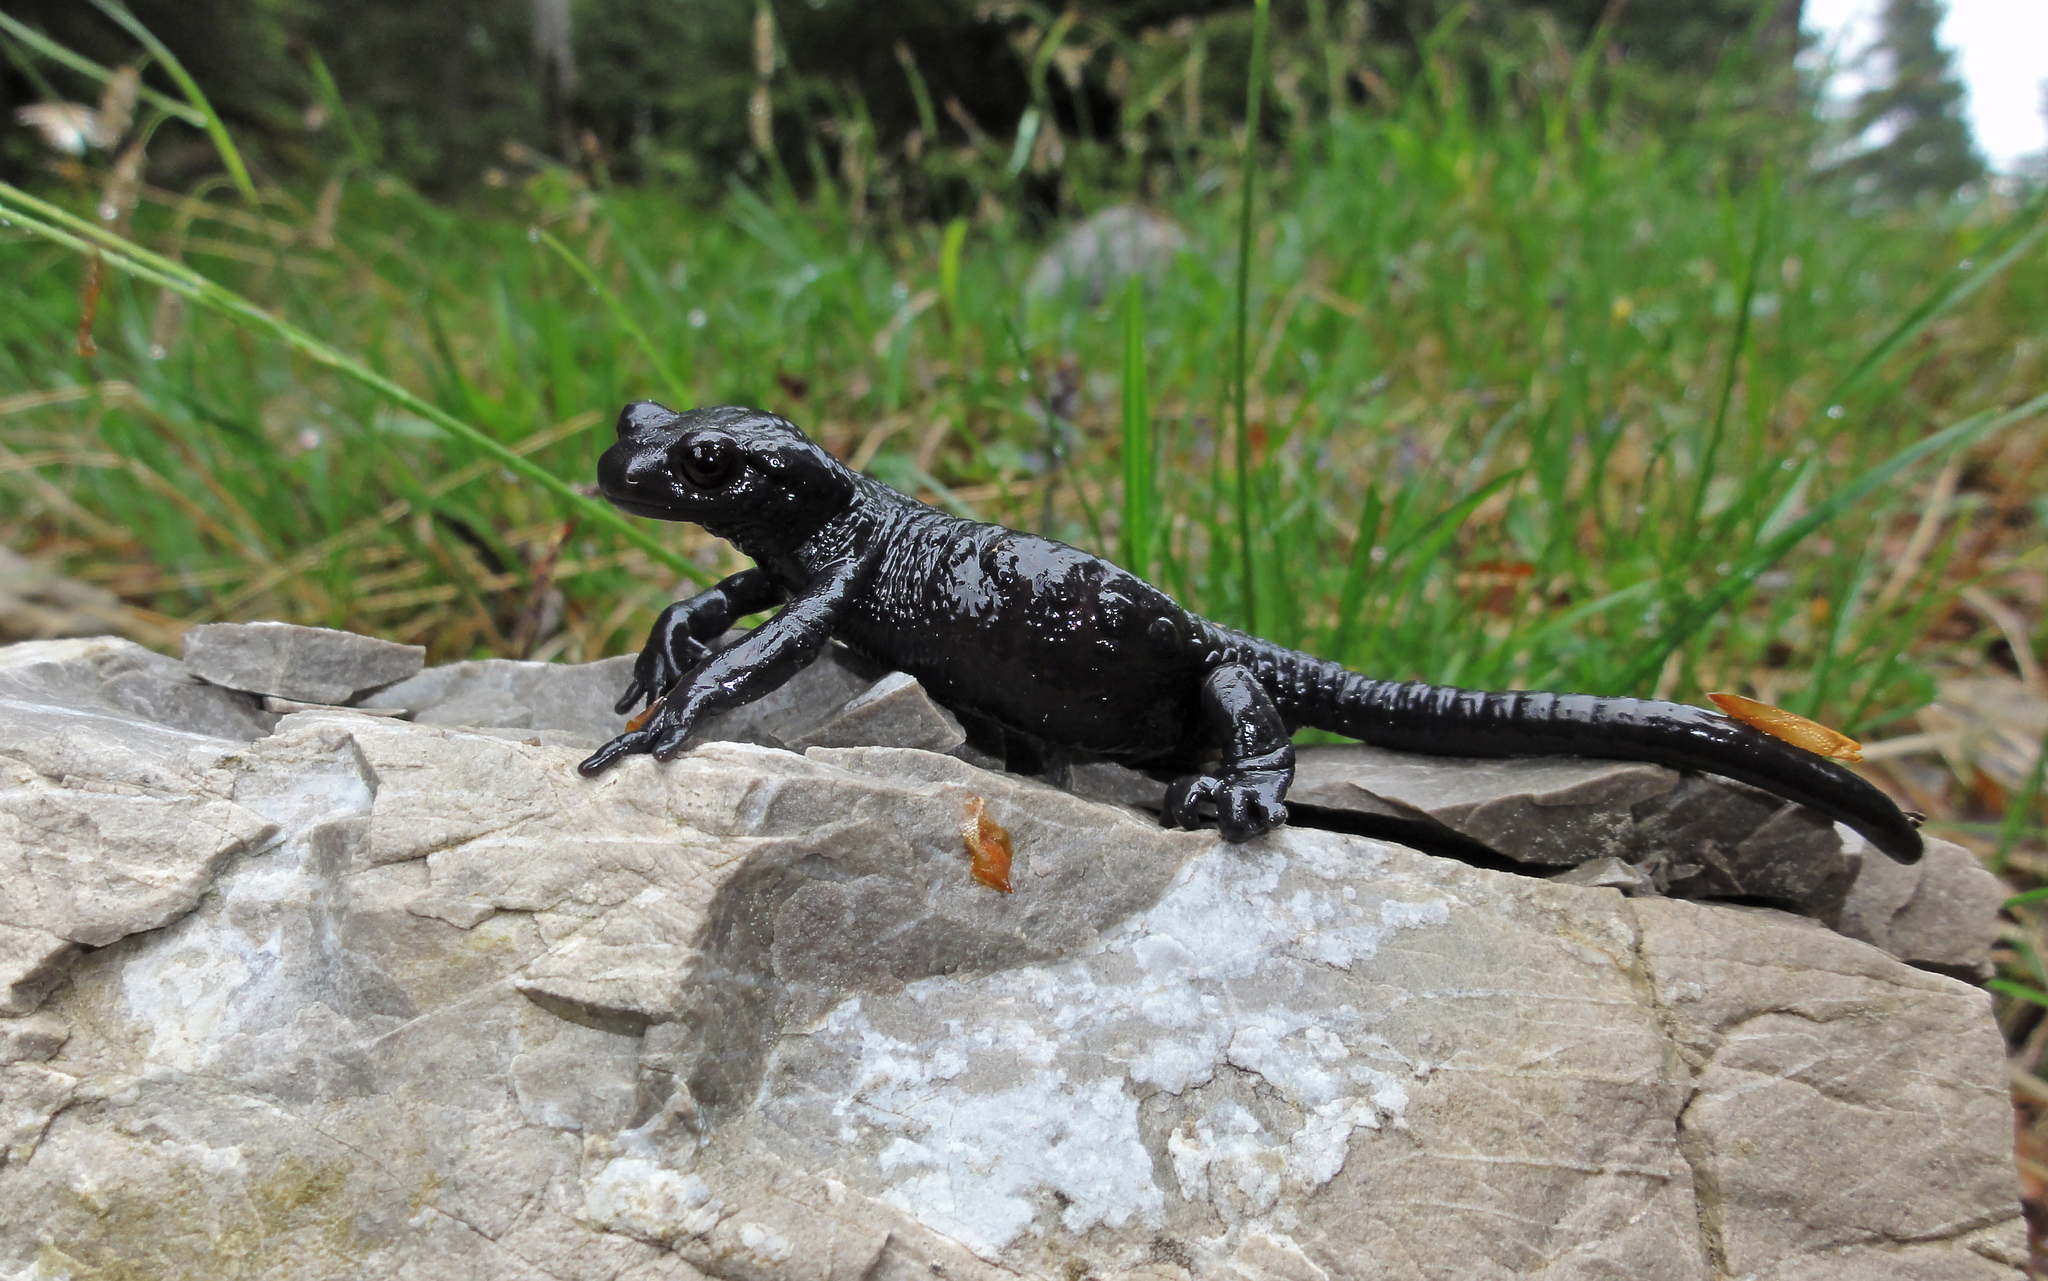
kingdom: Animalia
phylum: Chordata
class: Amphibia
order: Caudata
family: Salamandridae
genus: Salamandra
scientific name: Salamandra atra
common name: Alpine salamander
